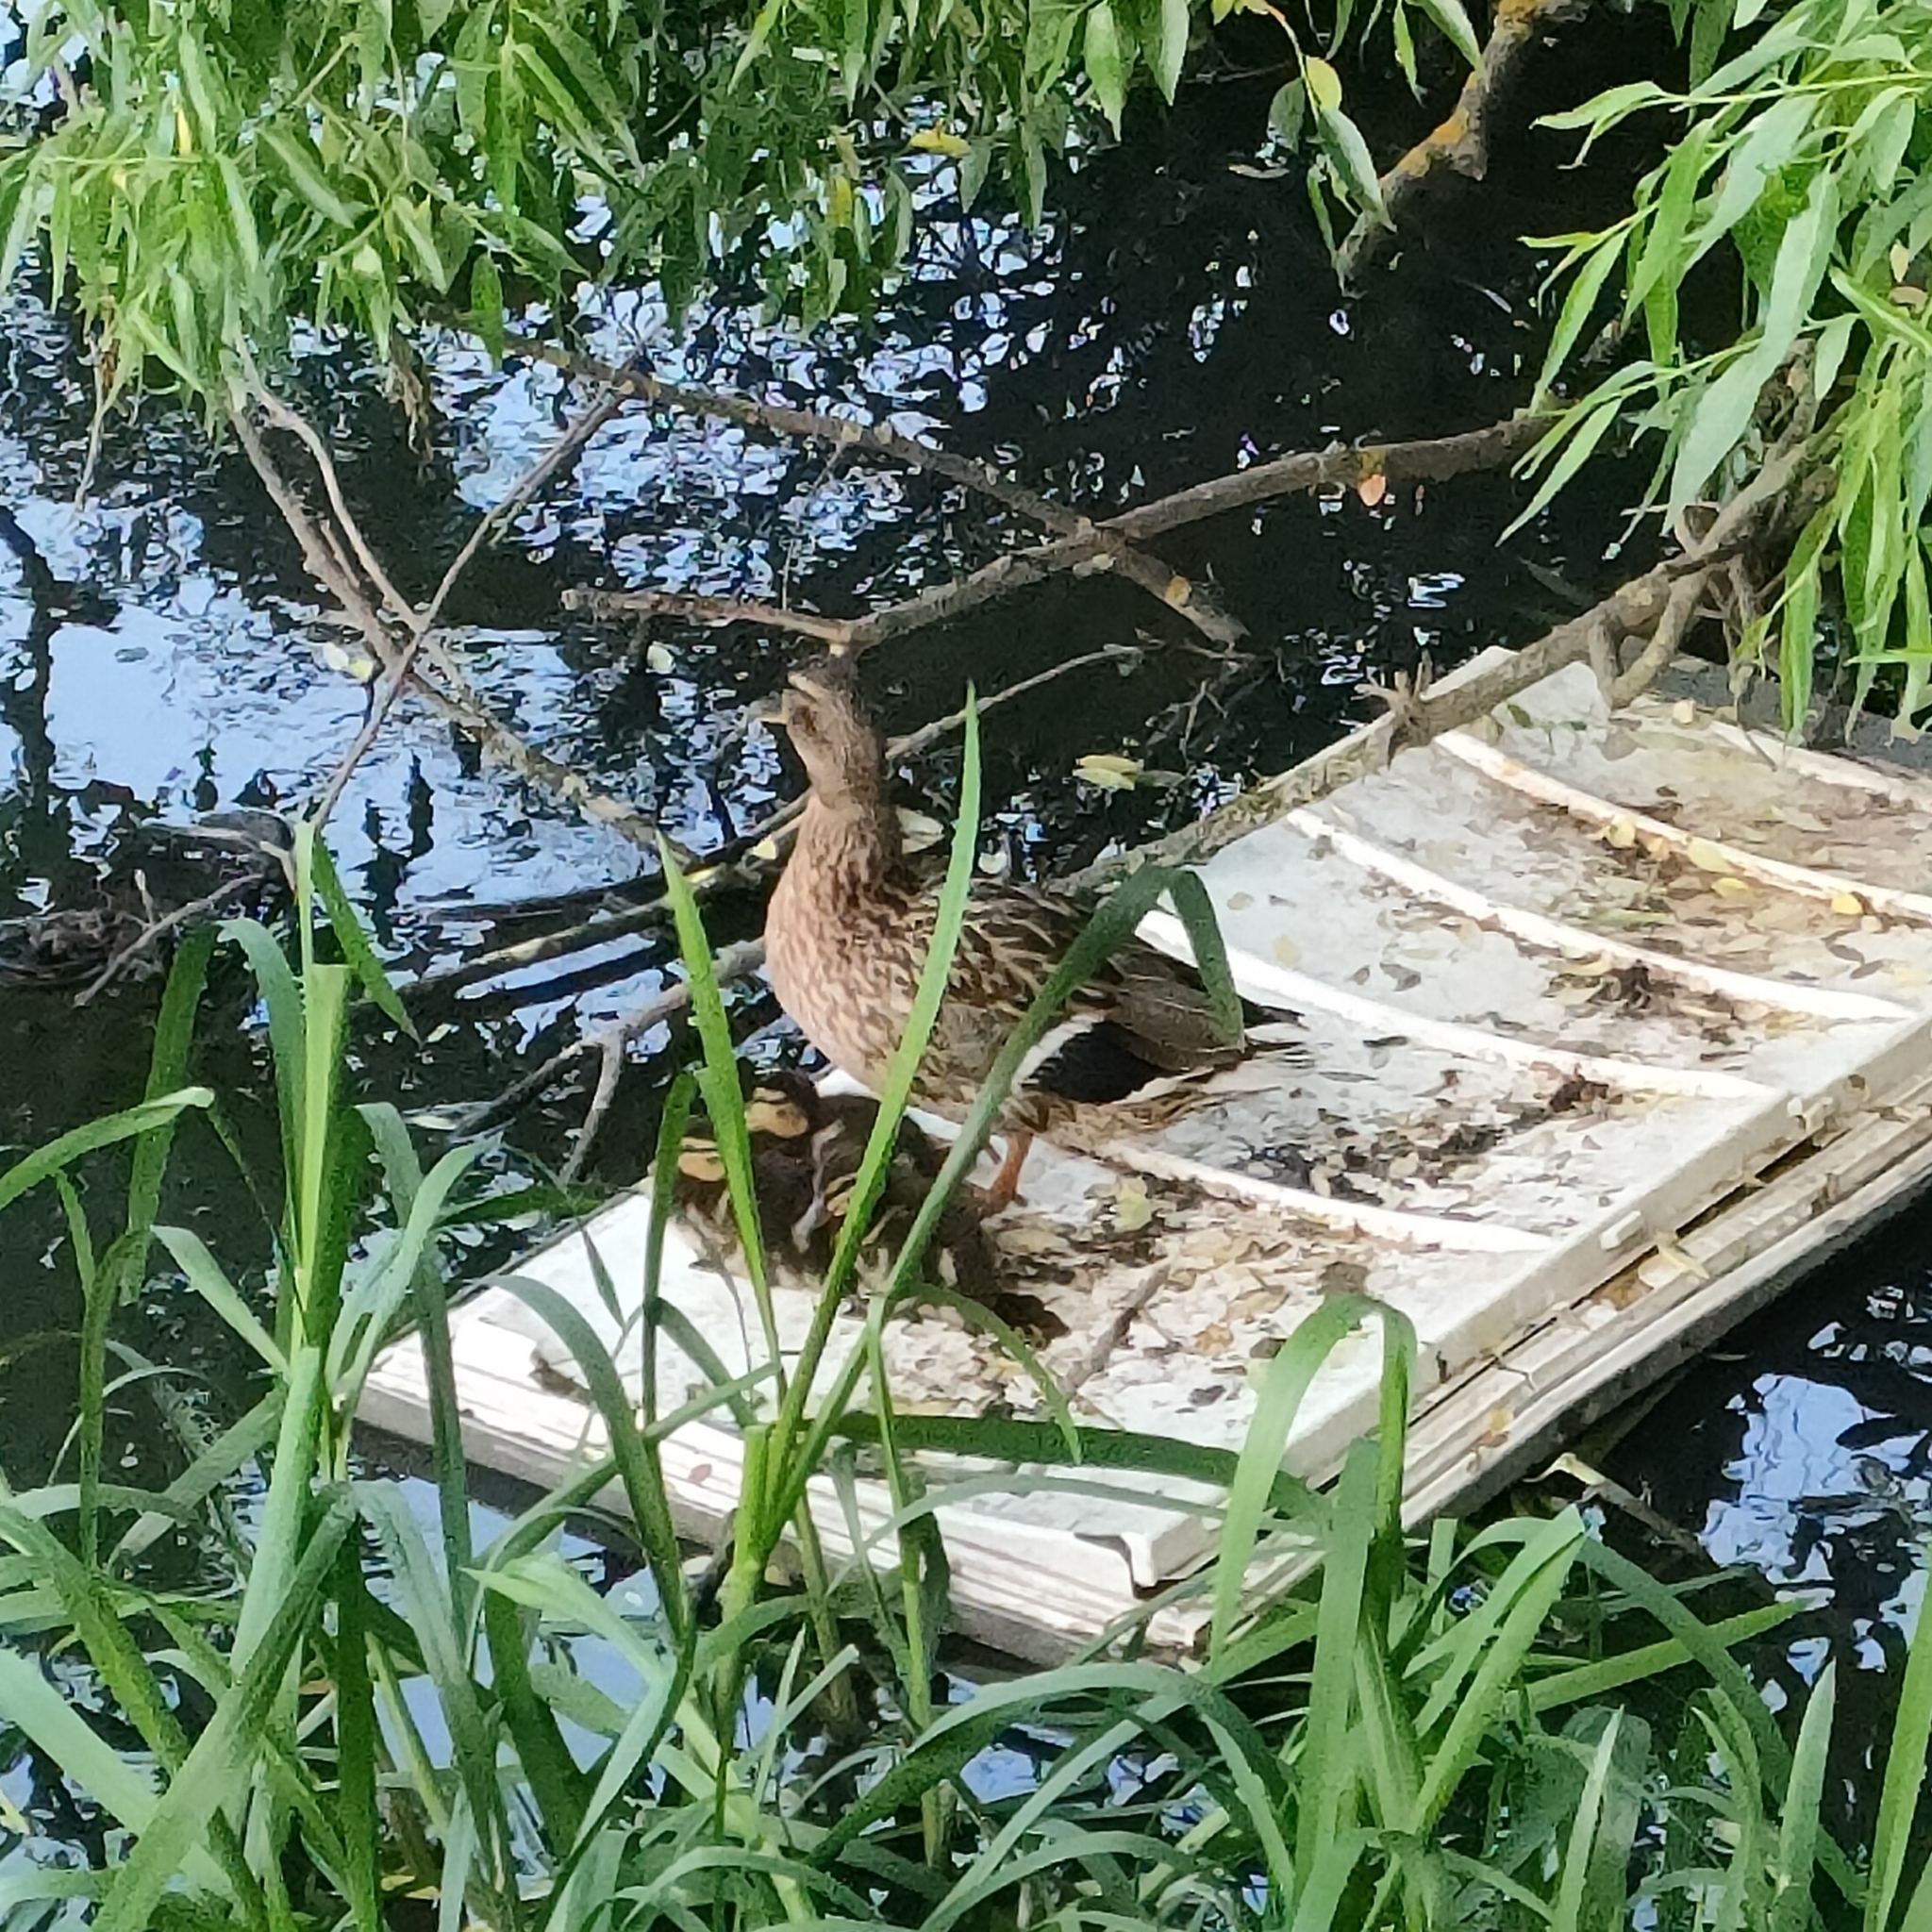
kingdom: Animalia
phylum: Chordata
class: Aves
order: Anseriformes
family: Anatidae
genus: Anas
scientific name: Anas platyrhynchos
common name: Mallard
